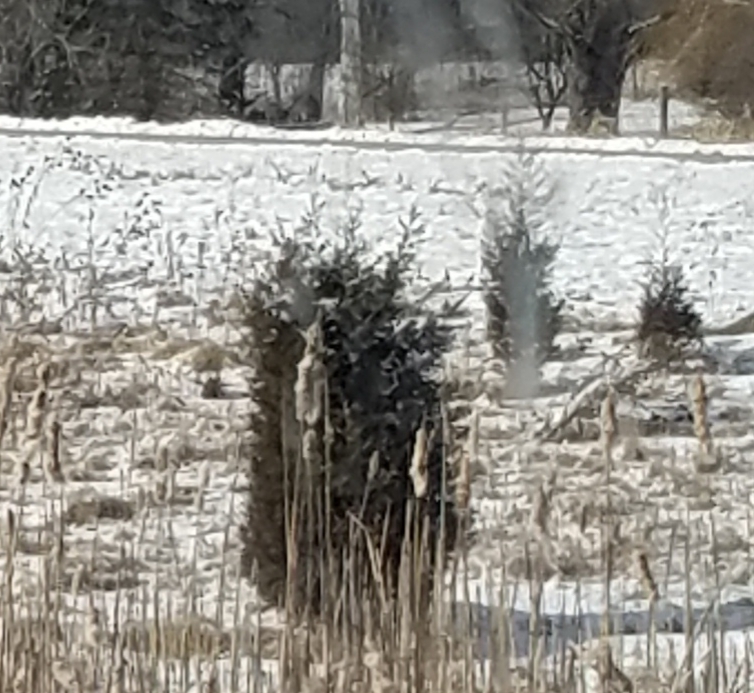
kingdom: Plantae
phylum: Tracheophyta
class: Pinopsida
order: Pinales
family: Cupressaceae
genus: Juniperus
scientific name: Juniperus virginiana
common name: Red juniper
